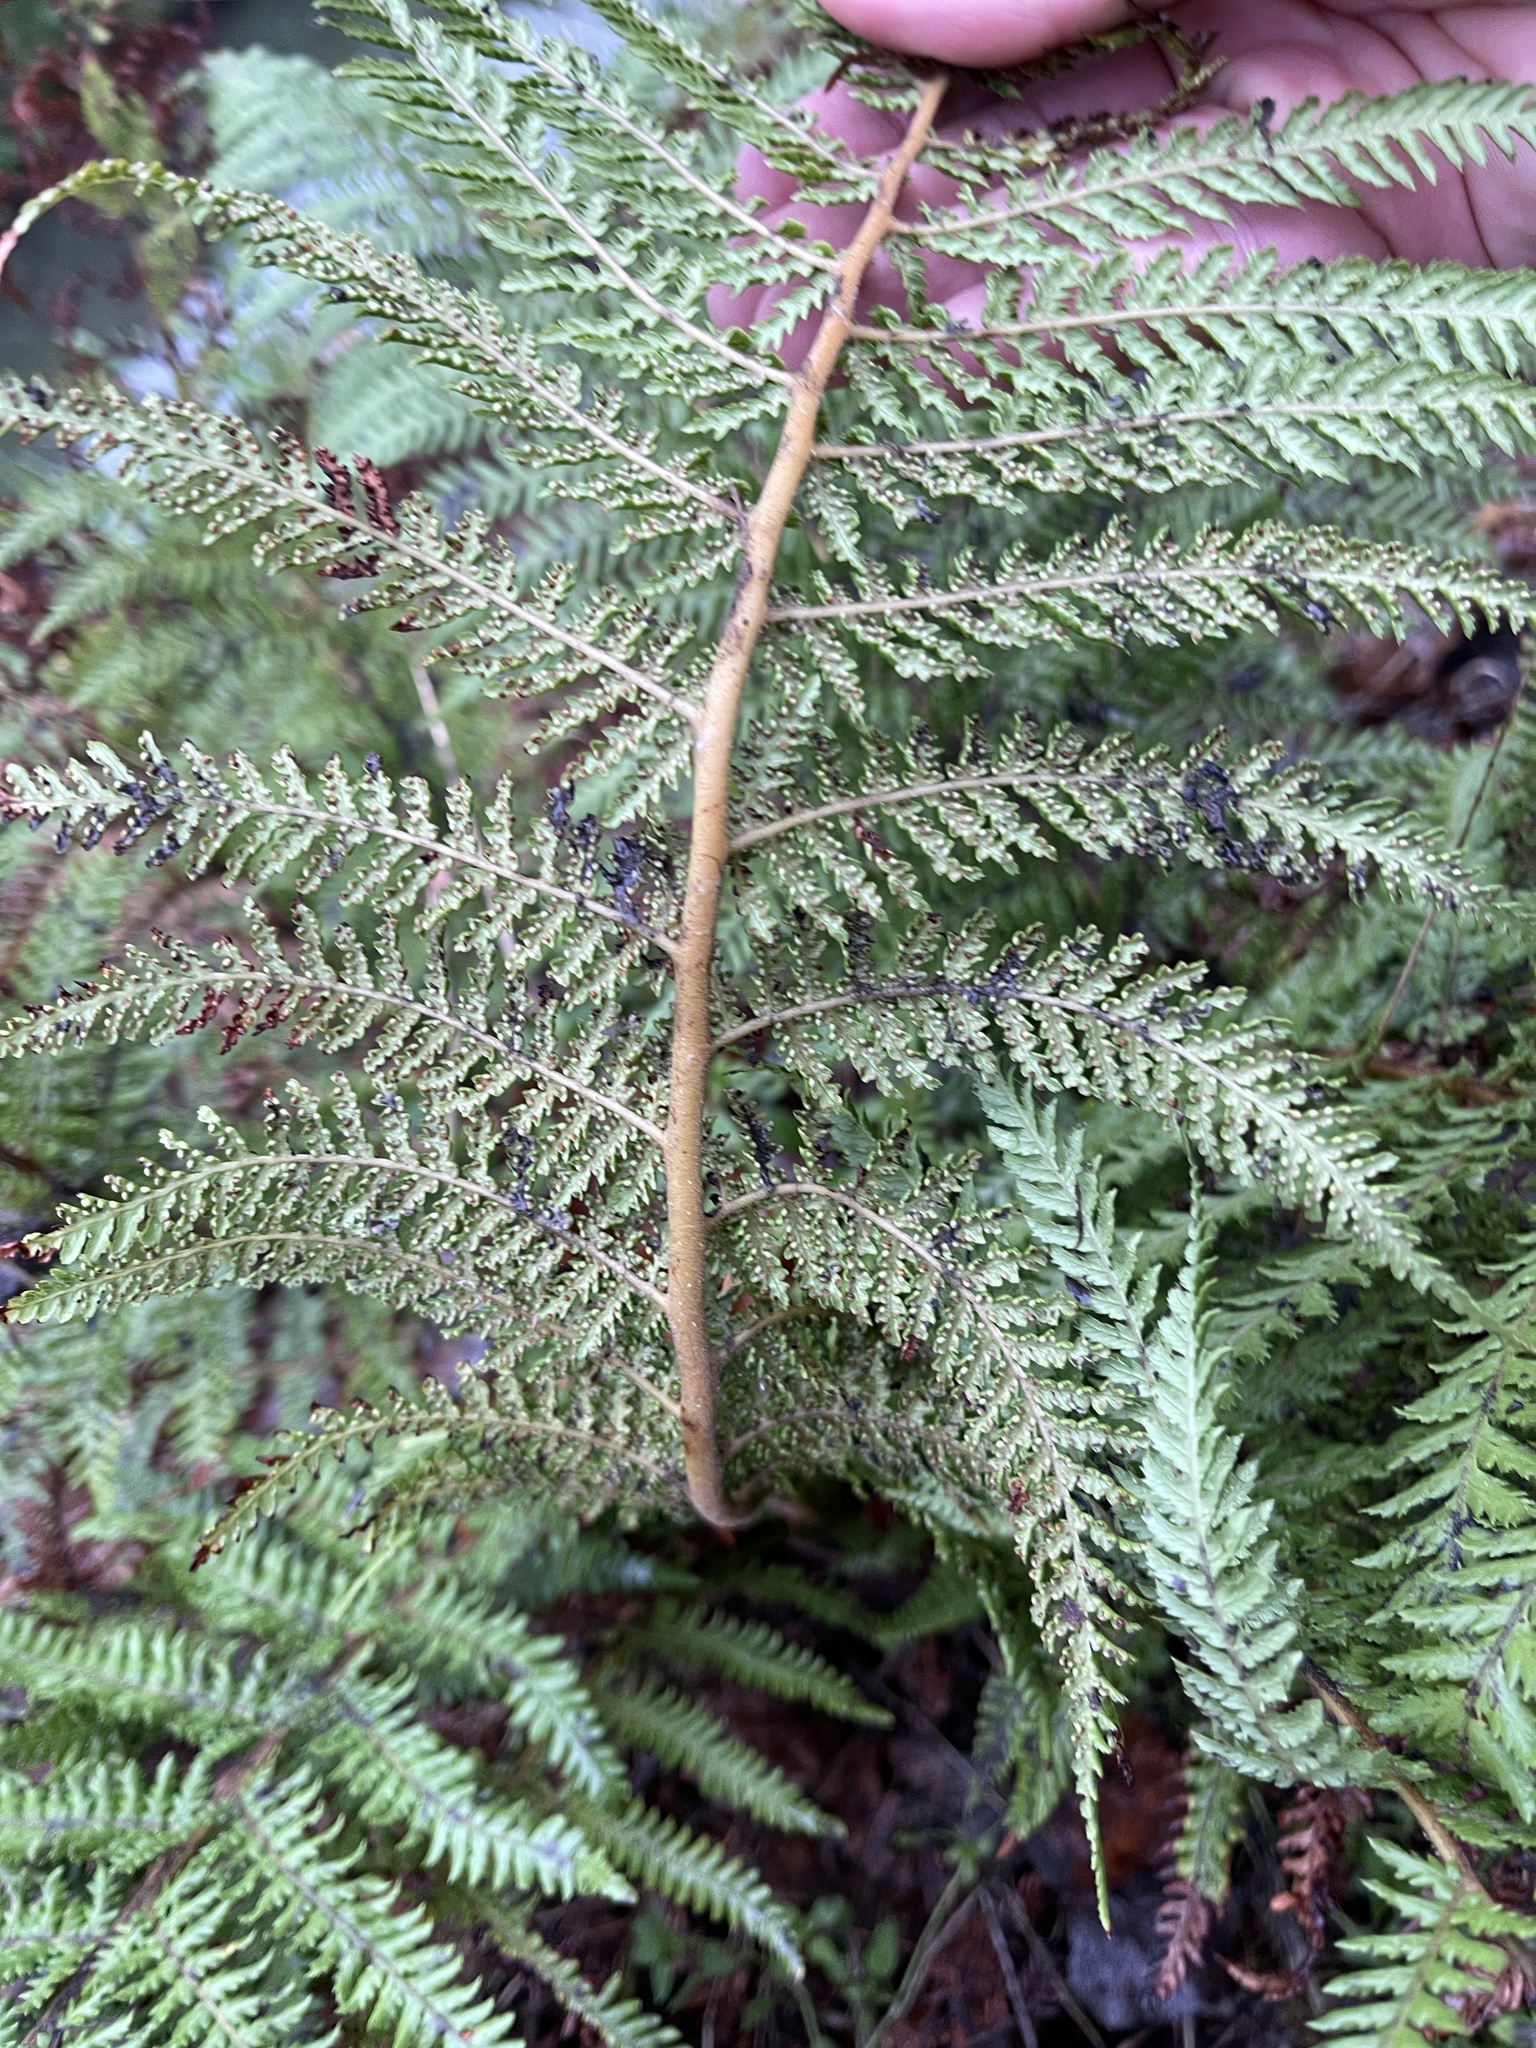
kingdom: Plantae
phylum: Tracheophyta
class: Polypodiopsida
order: Cyatheales
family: Dicksoniaceae
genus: Dicksonia
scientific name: Dicksonia fibrosa
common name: Golden tree fern
